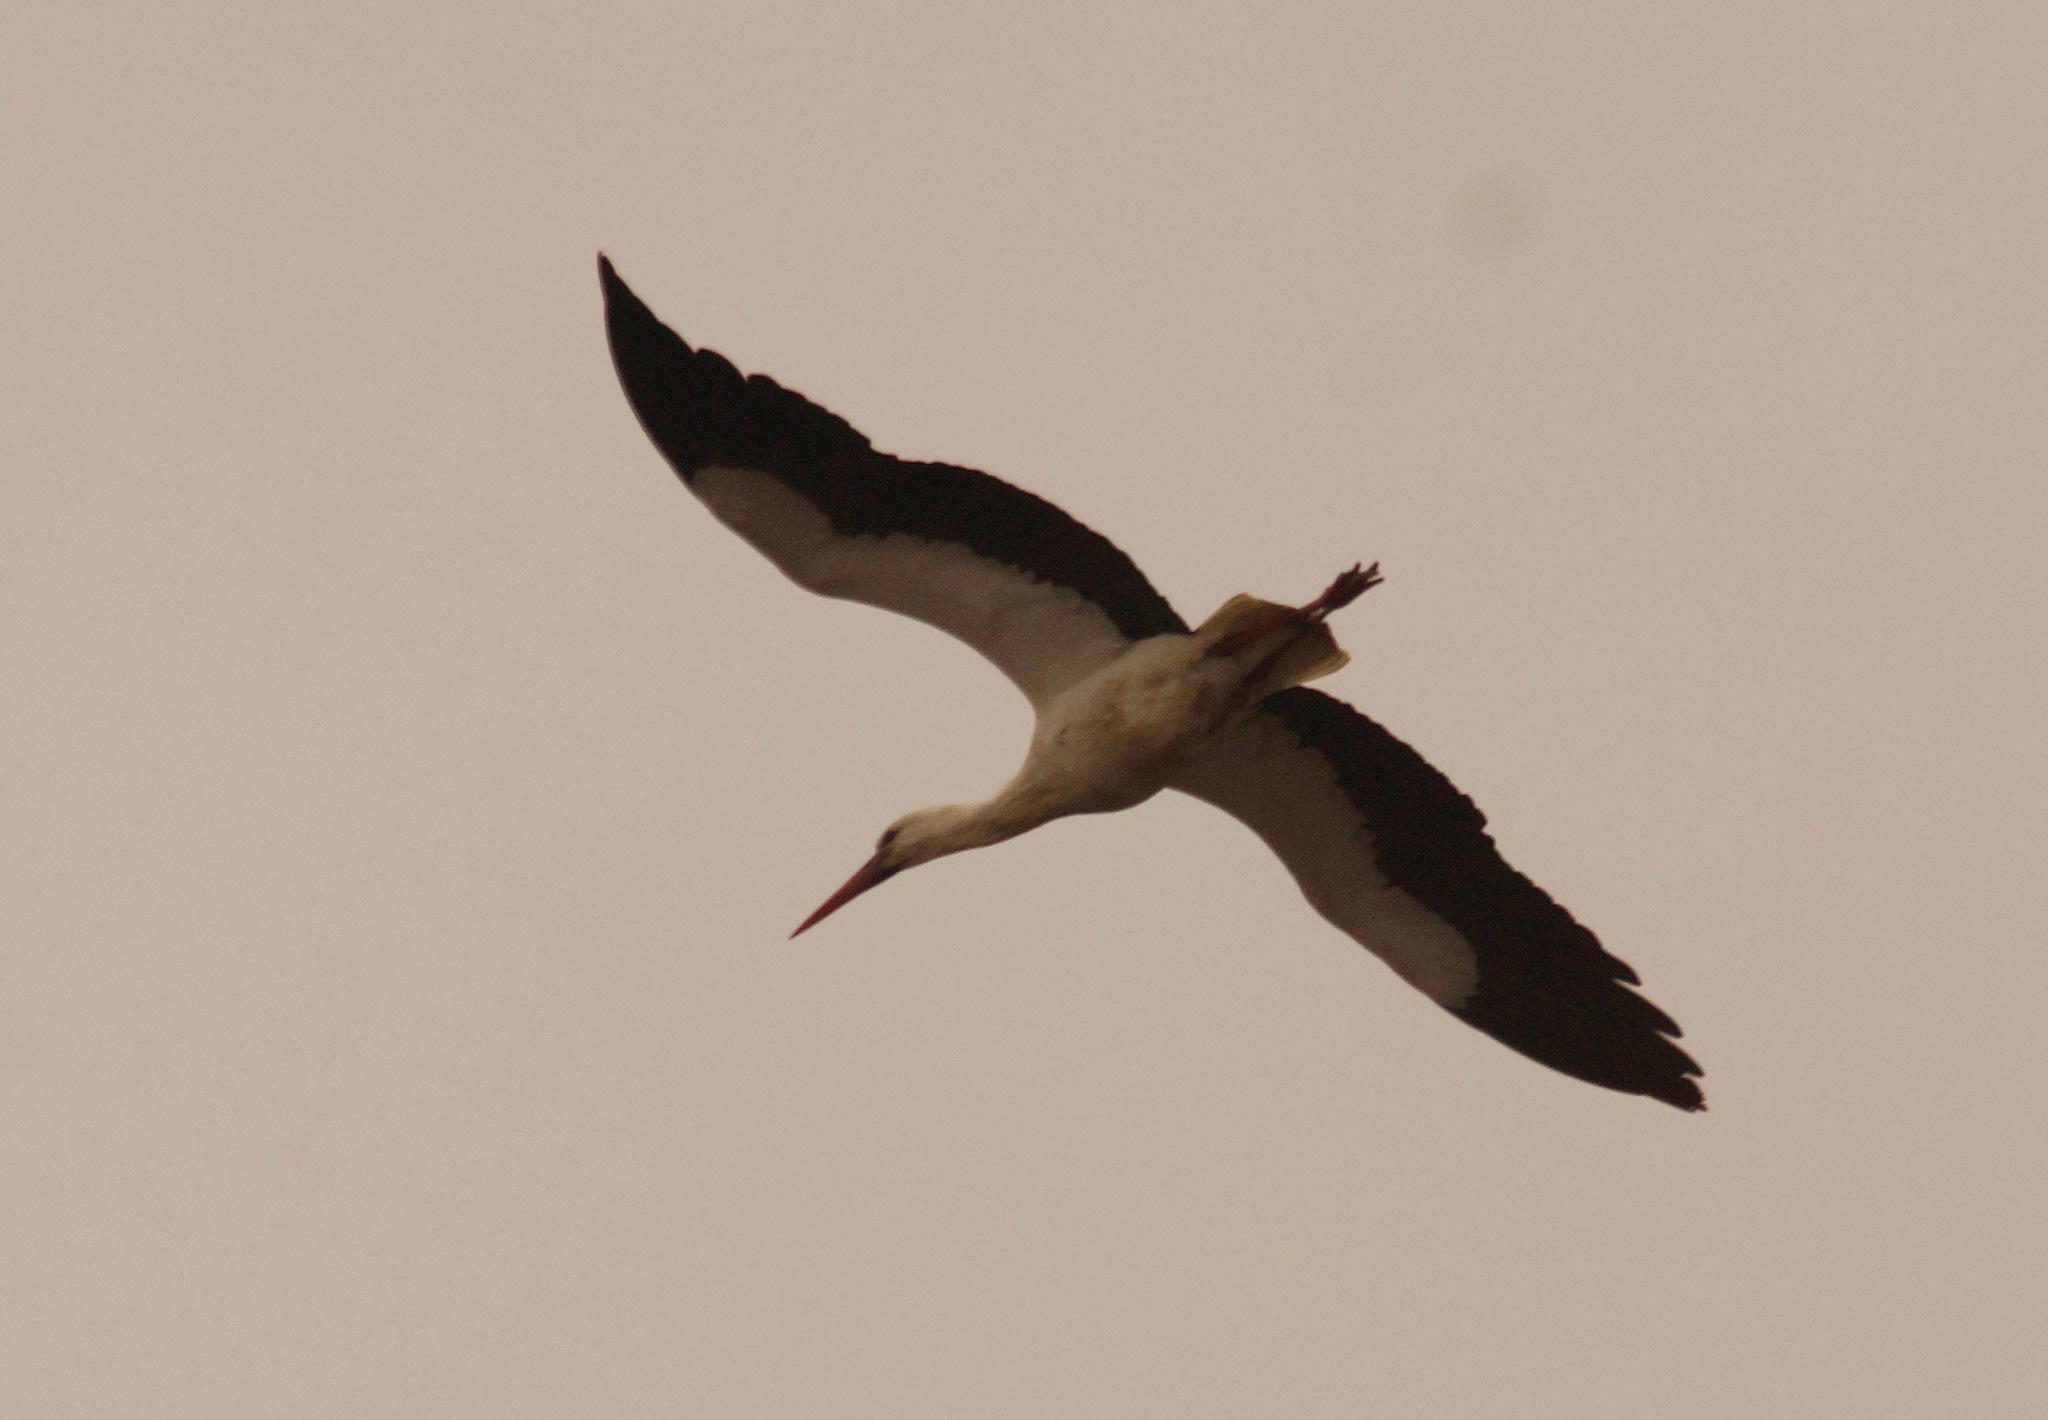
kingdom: Animalia
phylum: Chordata
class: Aves
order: Ciconiiformes
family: Ciconiidae
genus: Ciconia
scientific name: Ciconia ciconia
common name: White stork
